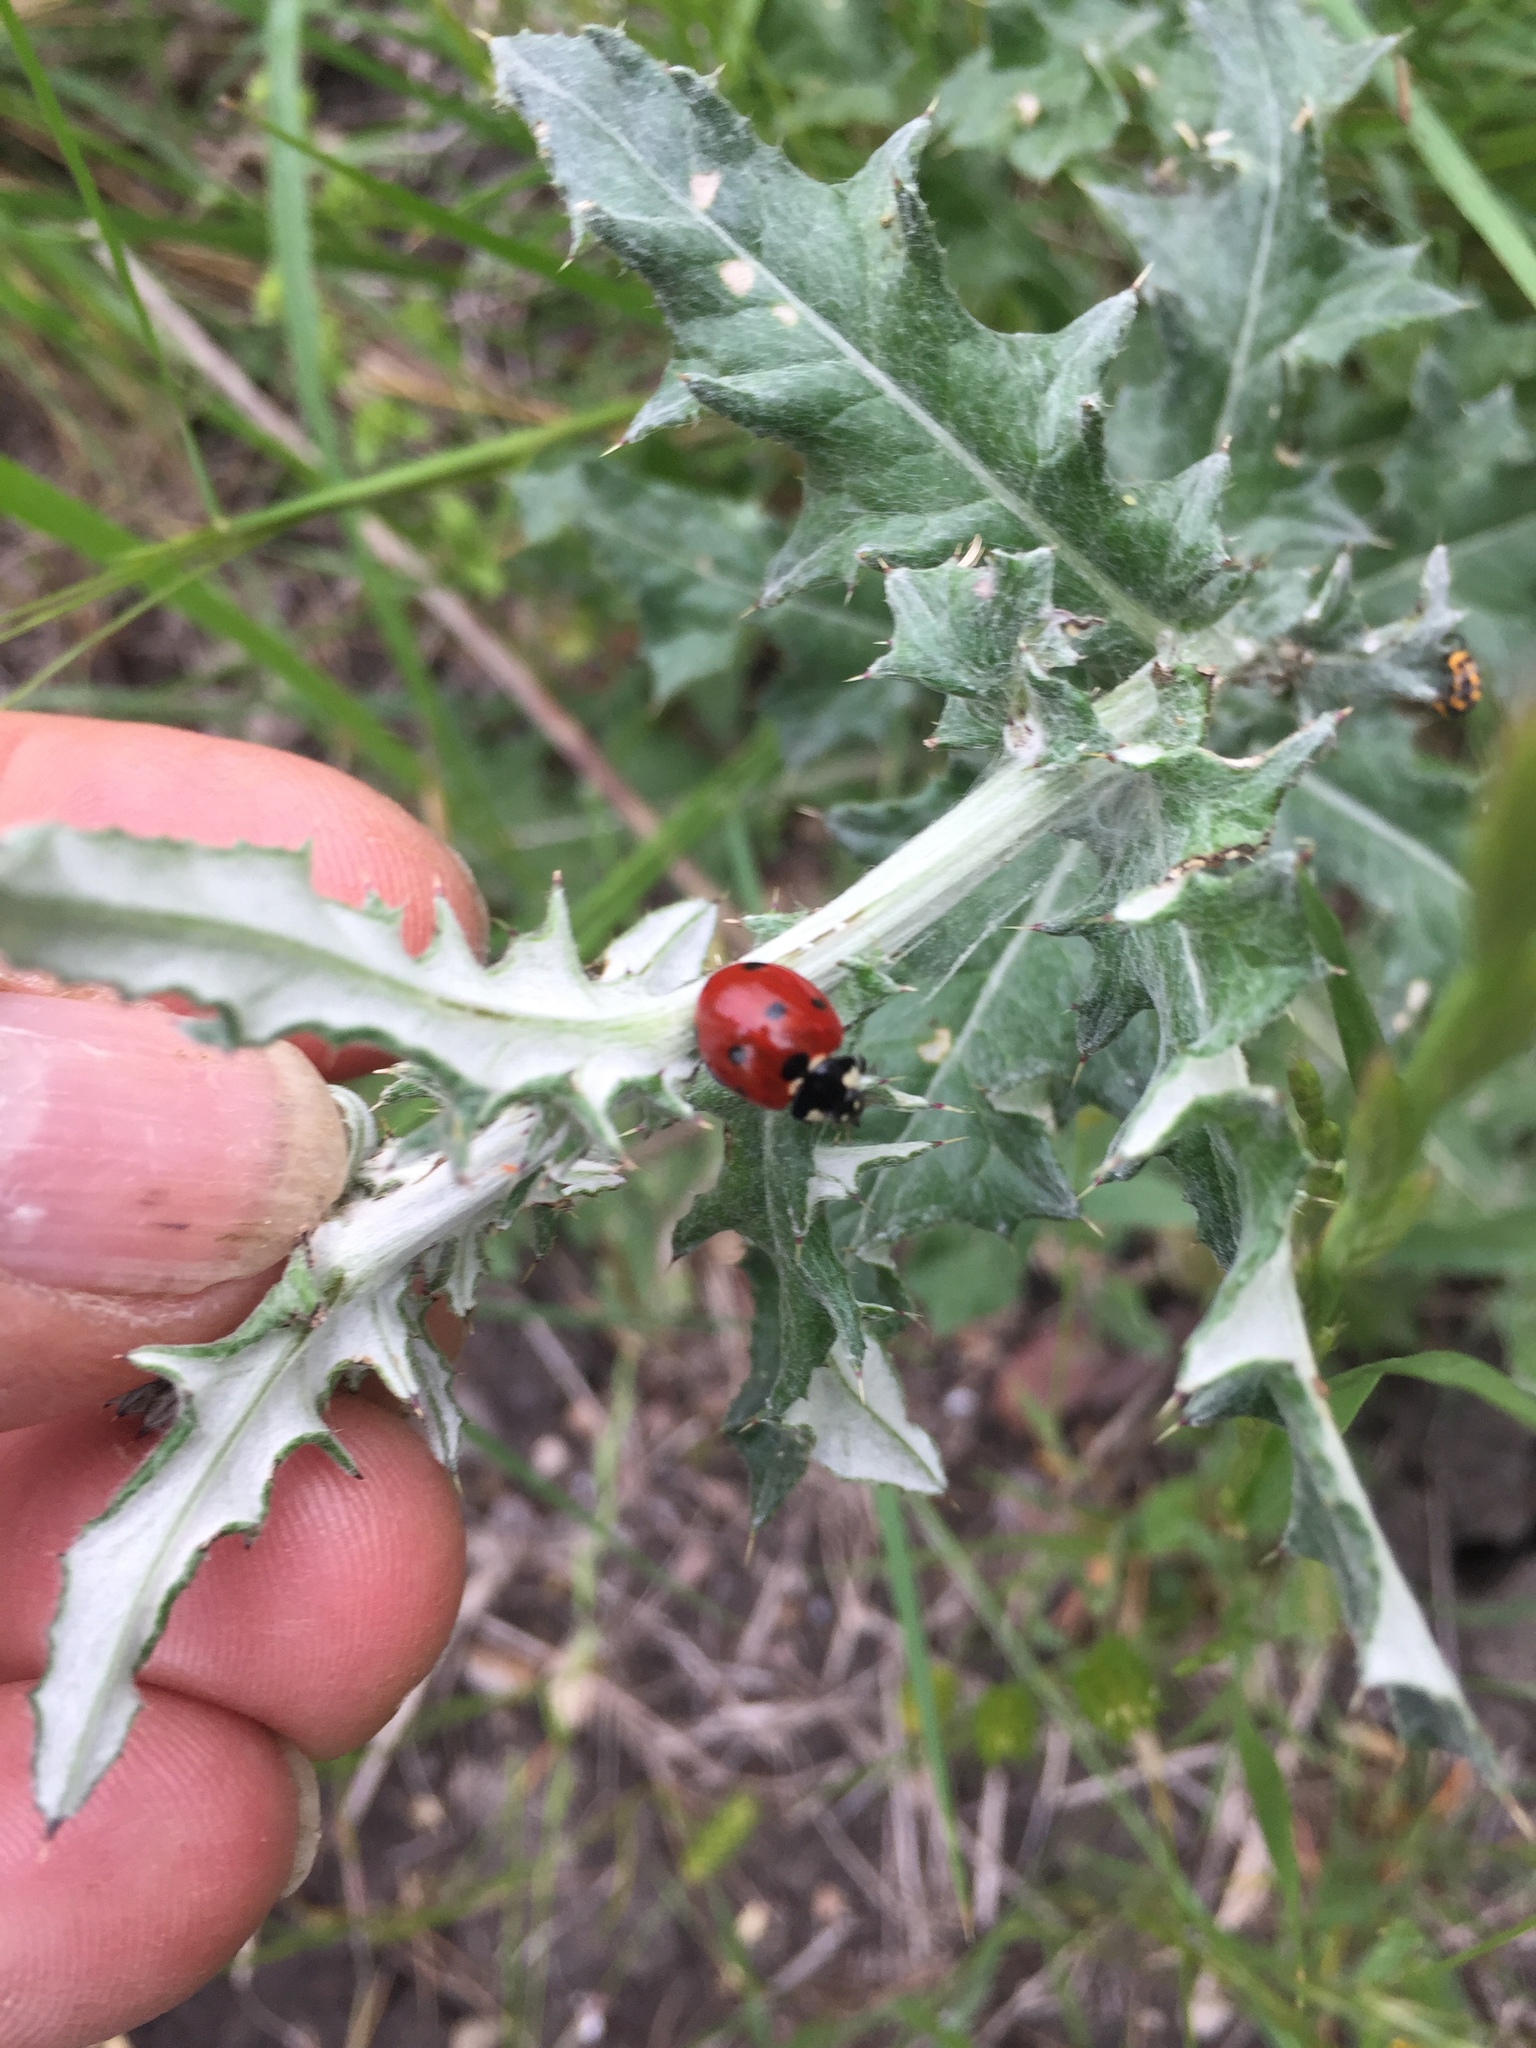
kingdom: Animalia
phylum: Arthropoda
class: Insecta
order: Coleoptera
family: Coccinellidae
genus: Coccinella
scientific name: Coccinella septempunctata
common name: Sevenspotted lady beetle
